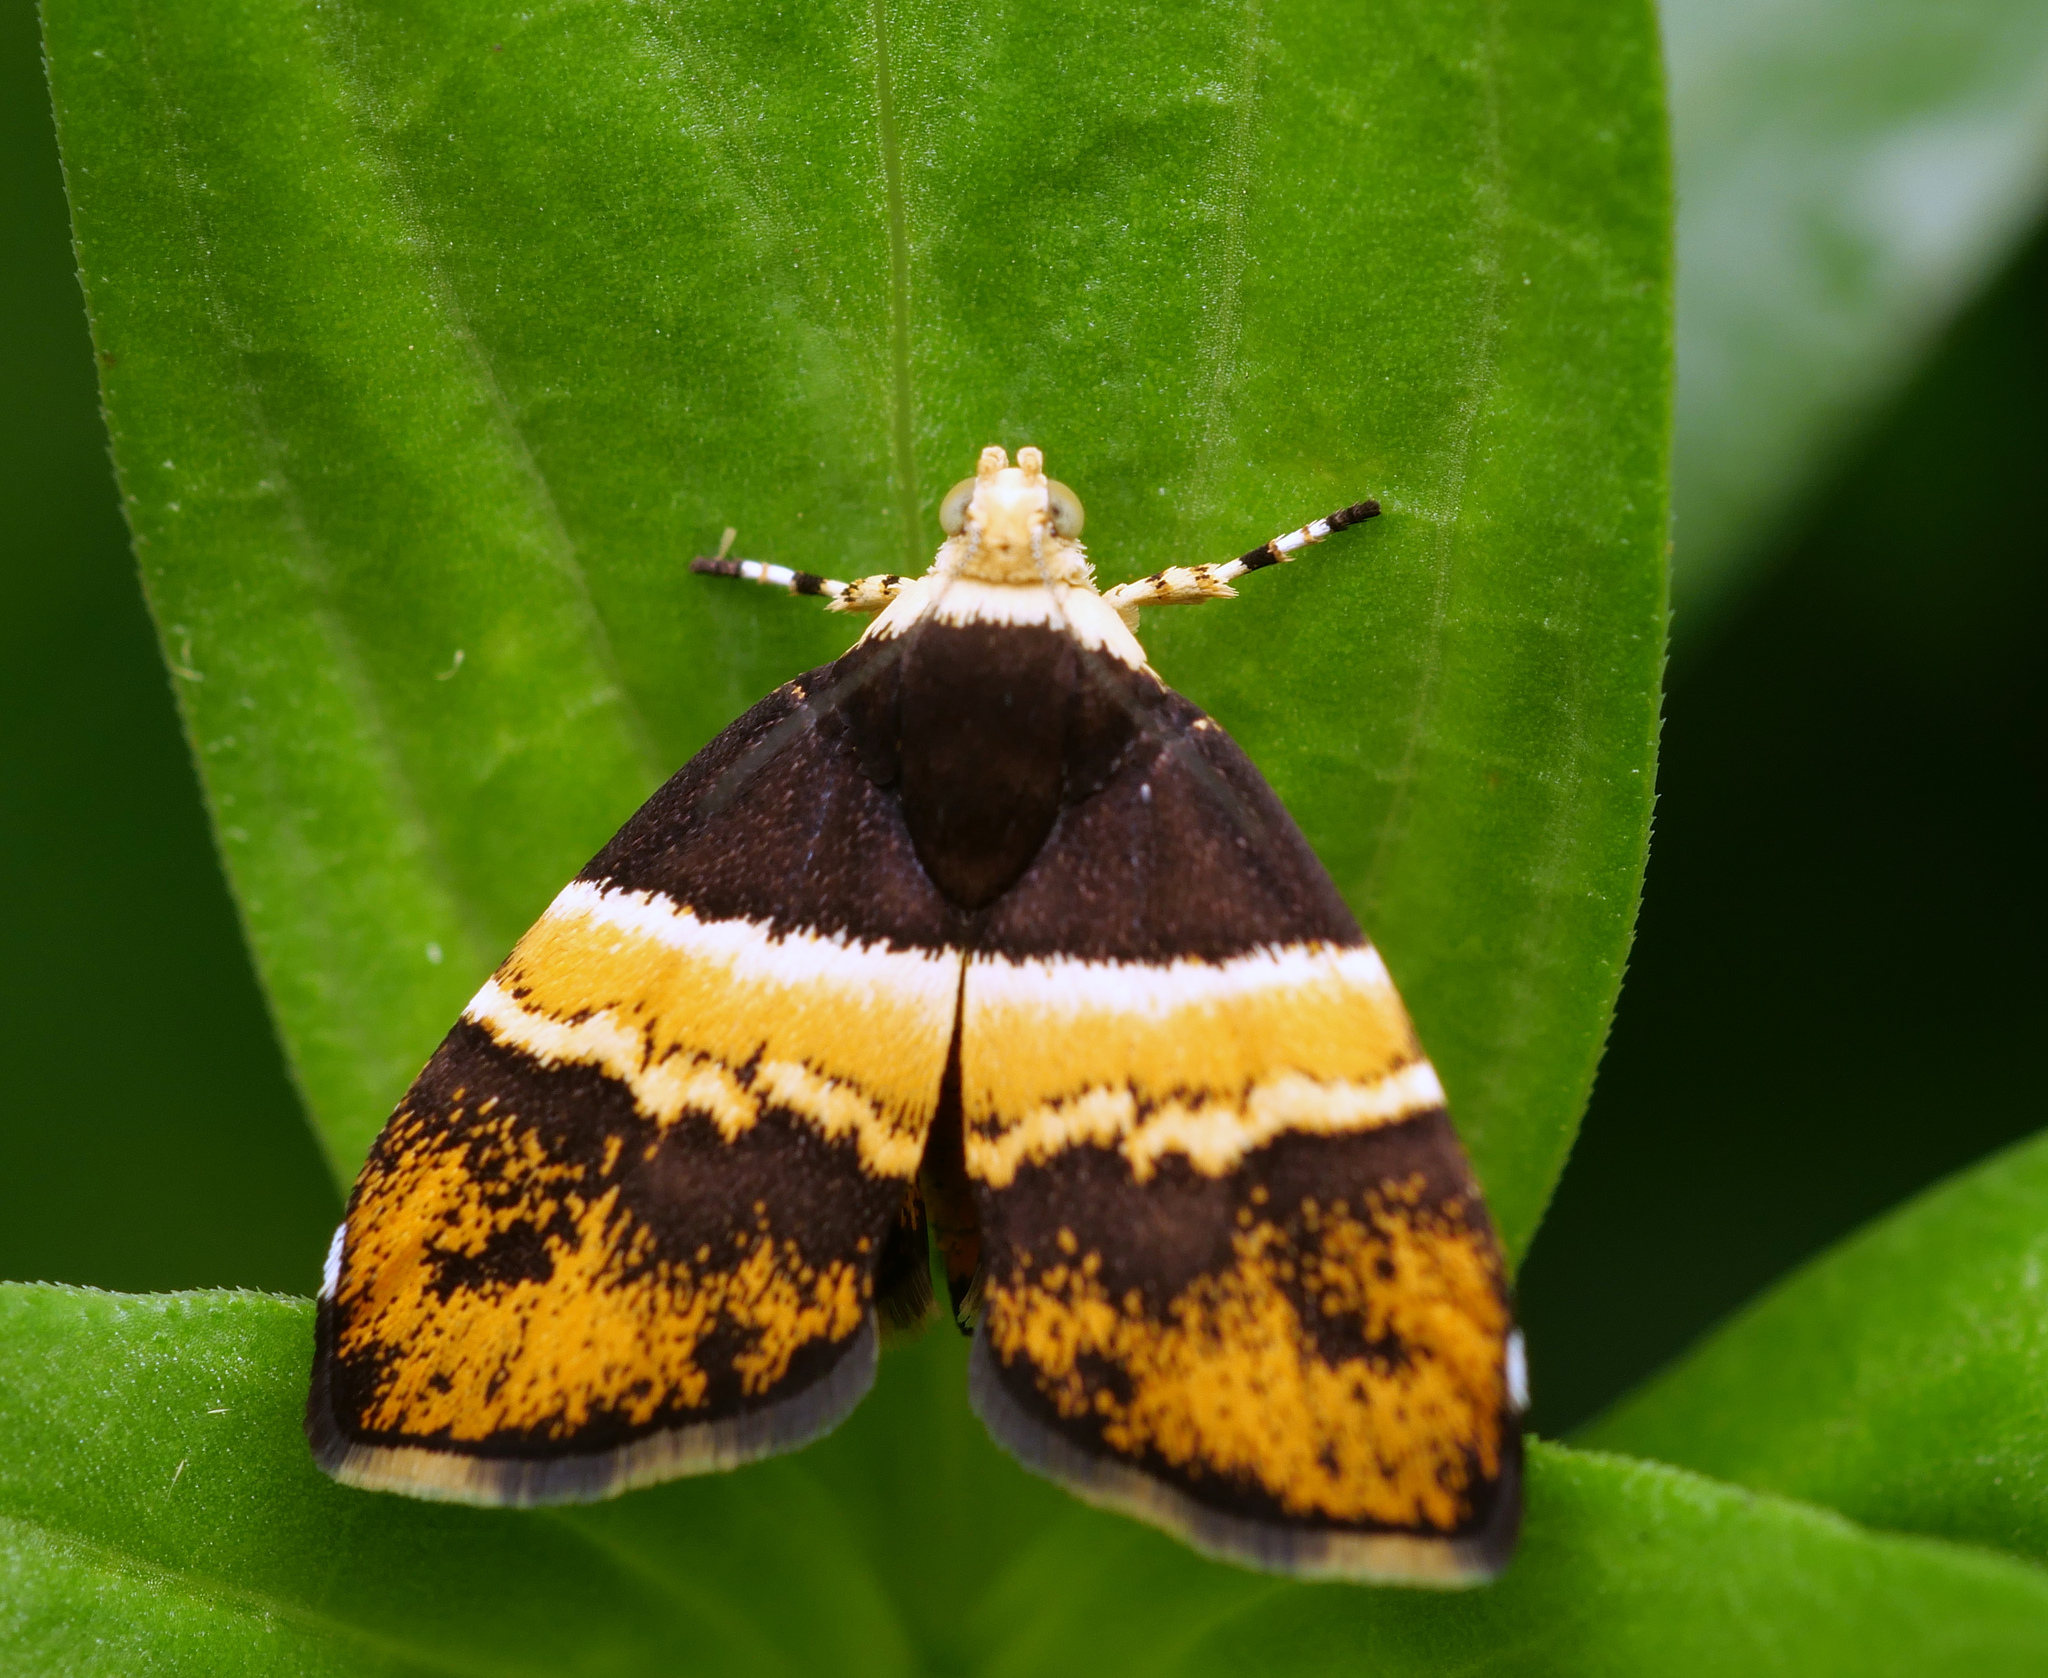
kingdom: Animalia
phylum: Arthropoda
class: Insecta
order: Lepidoptera
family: Choreutidae
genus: Choreutis
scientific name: Choreutis basalis
